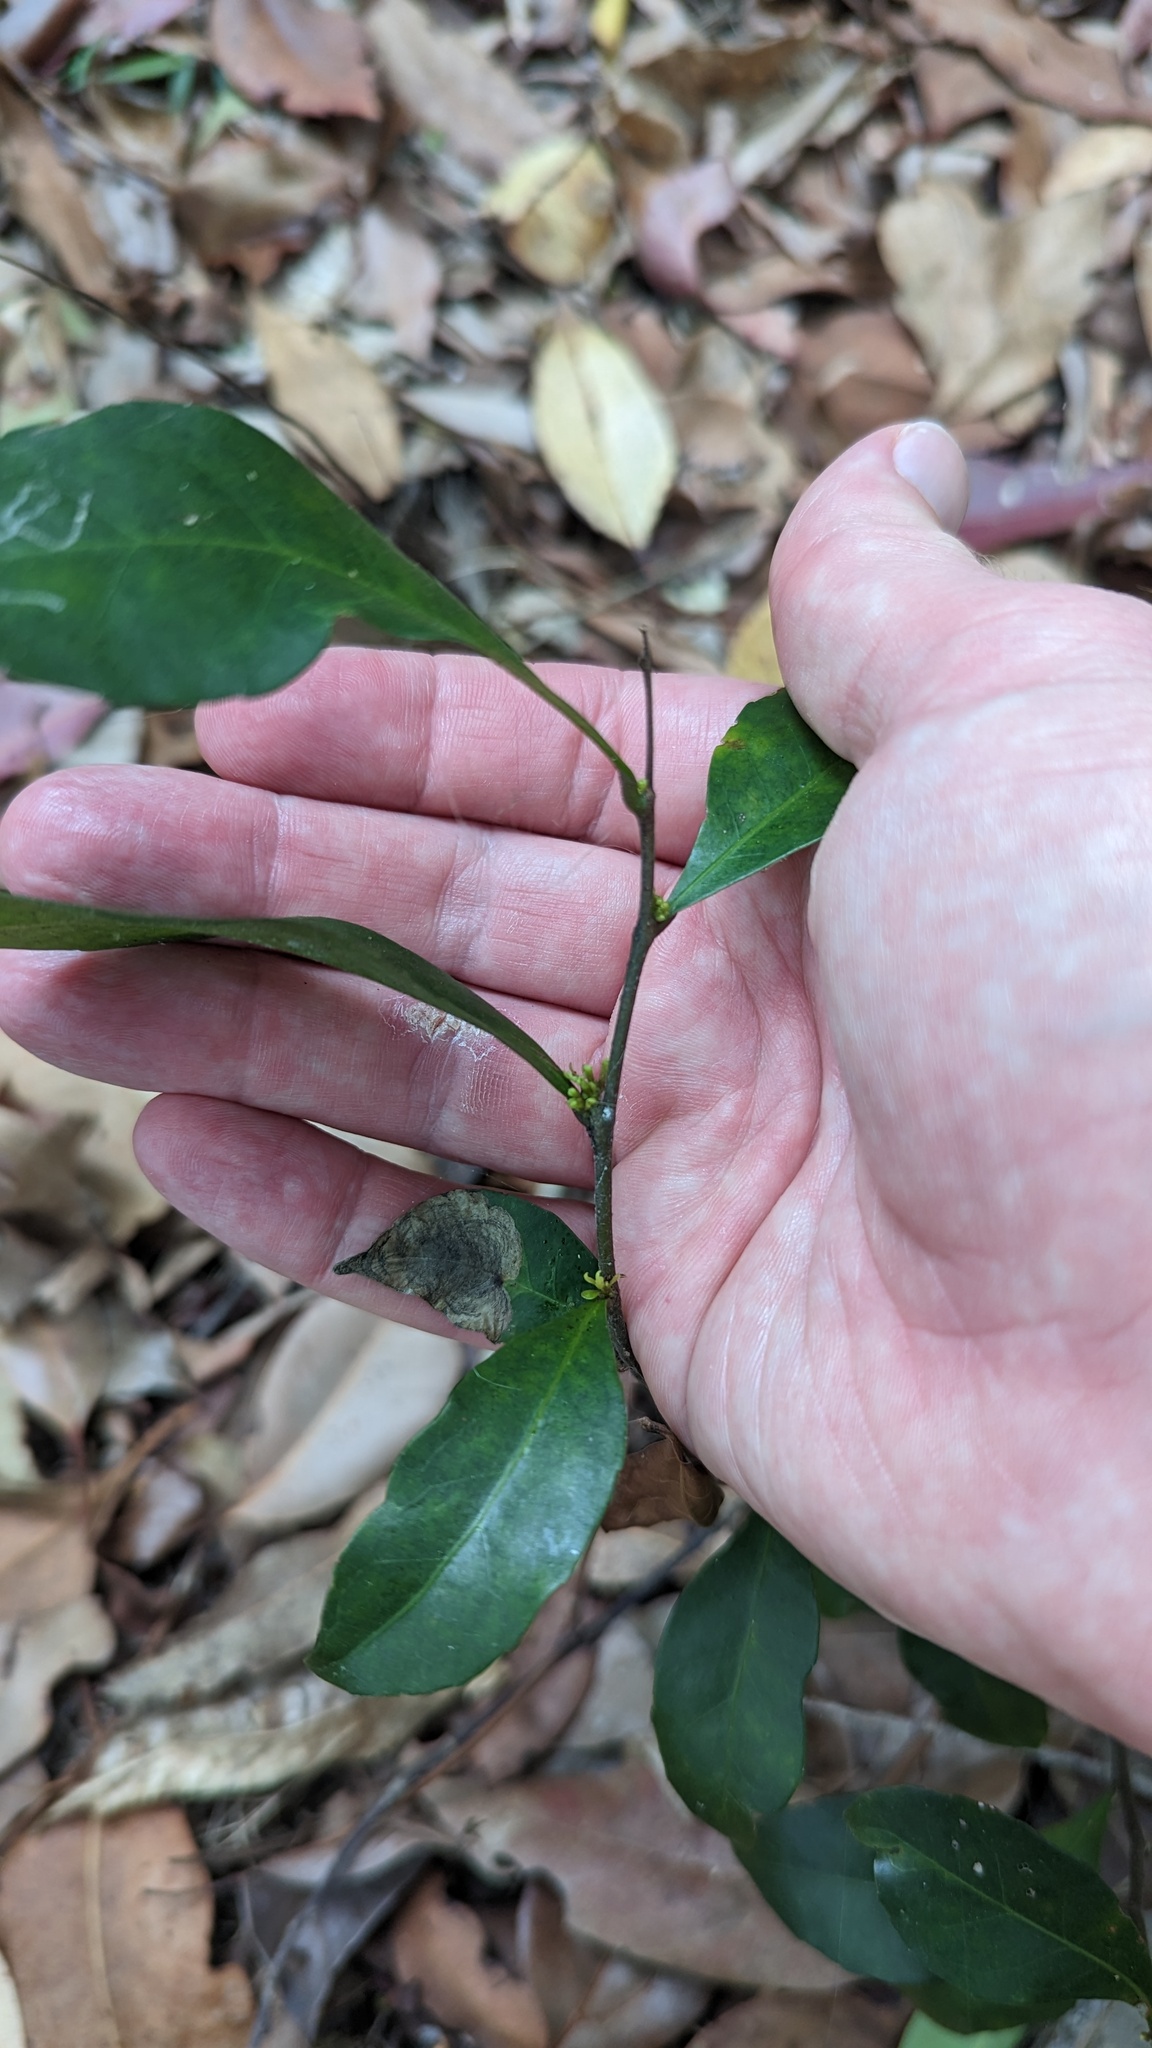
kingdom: Plantae
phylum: Tracheophyta
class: Magnoliopsida
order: Oxalidales
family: Elaeocarpaceae
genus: Elaeocarpus
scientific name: Elaeocarpus obovatus
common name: Freckled oliveberry
